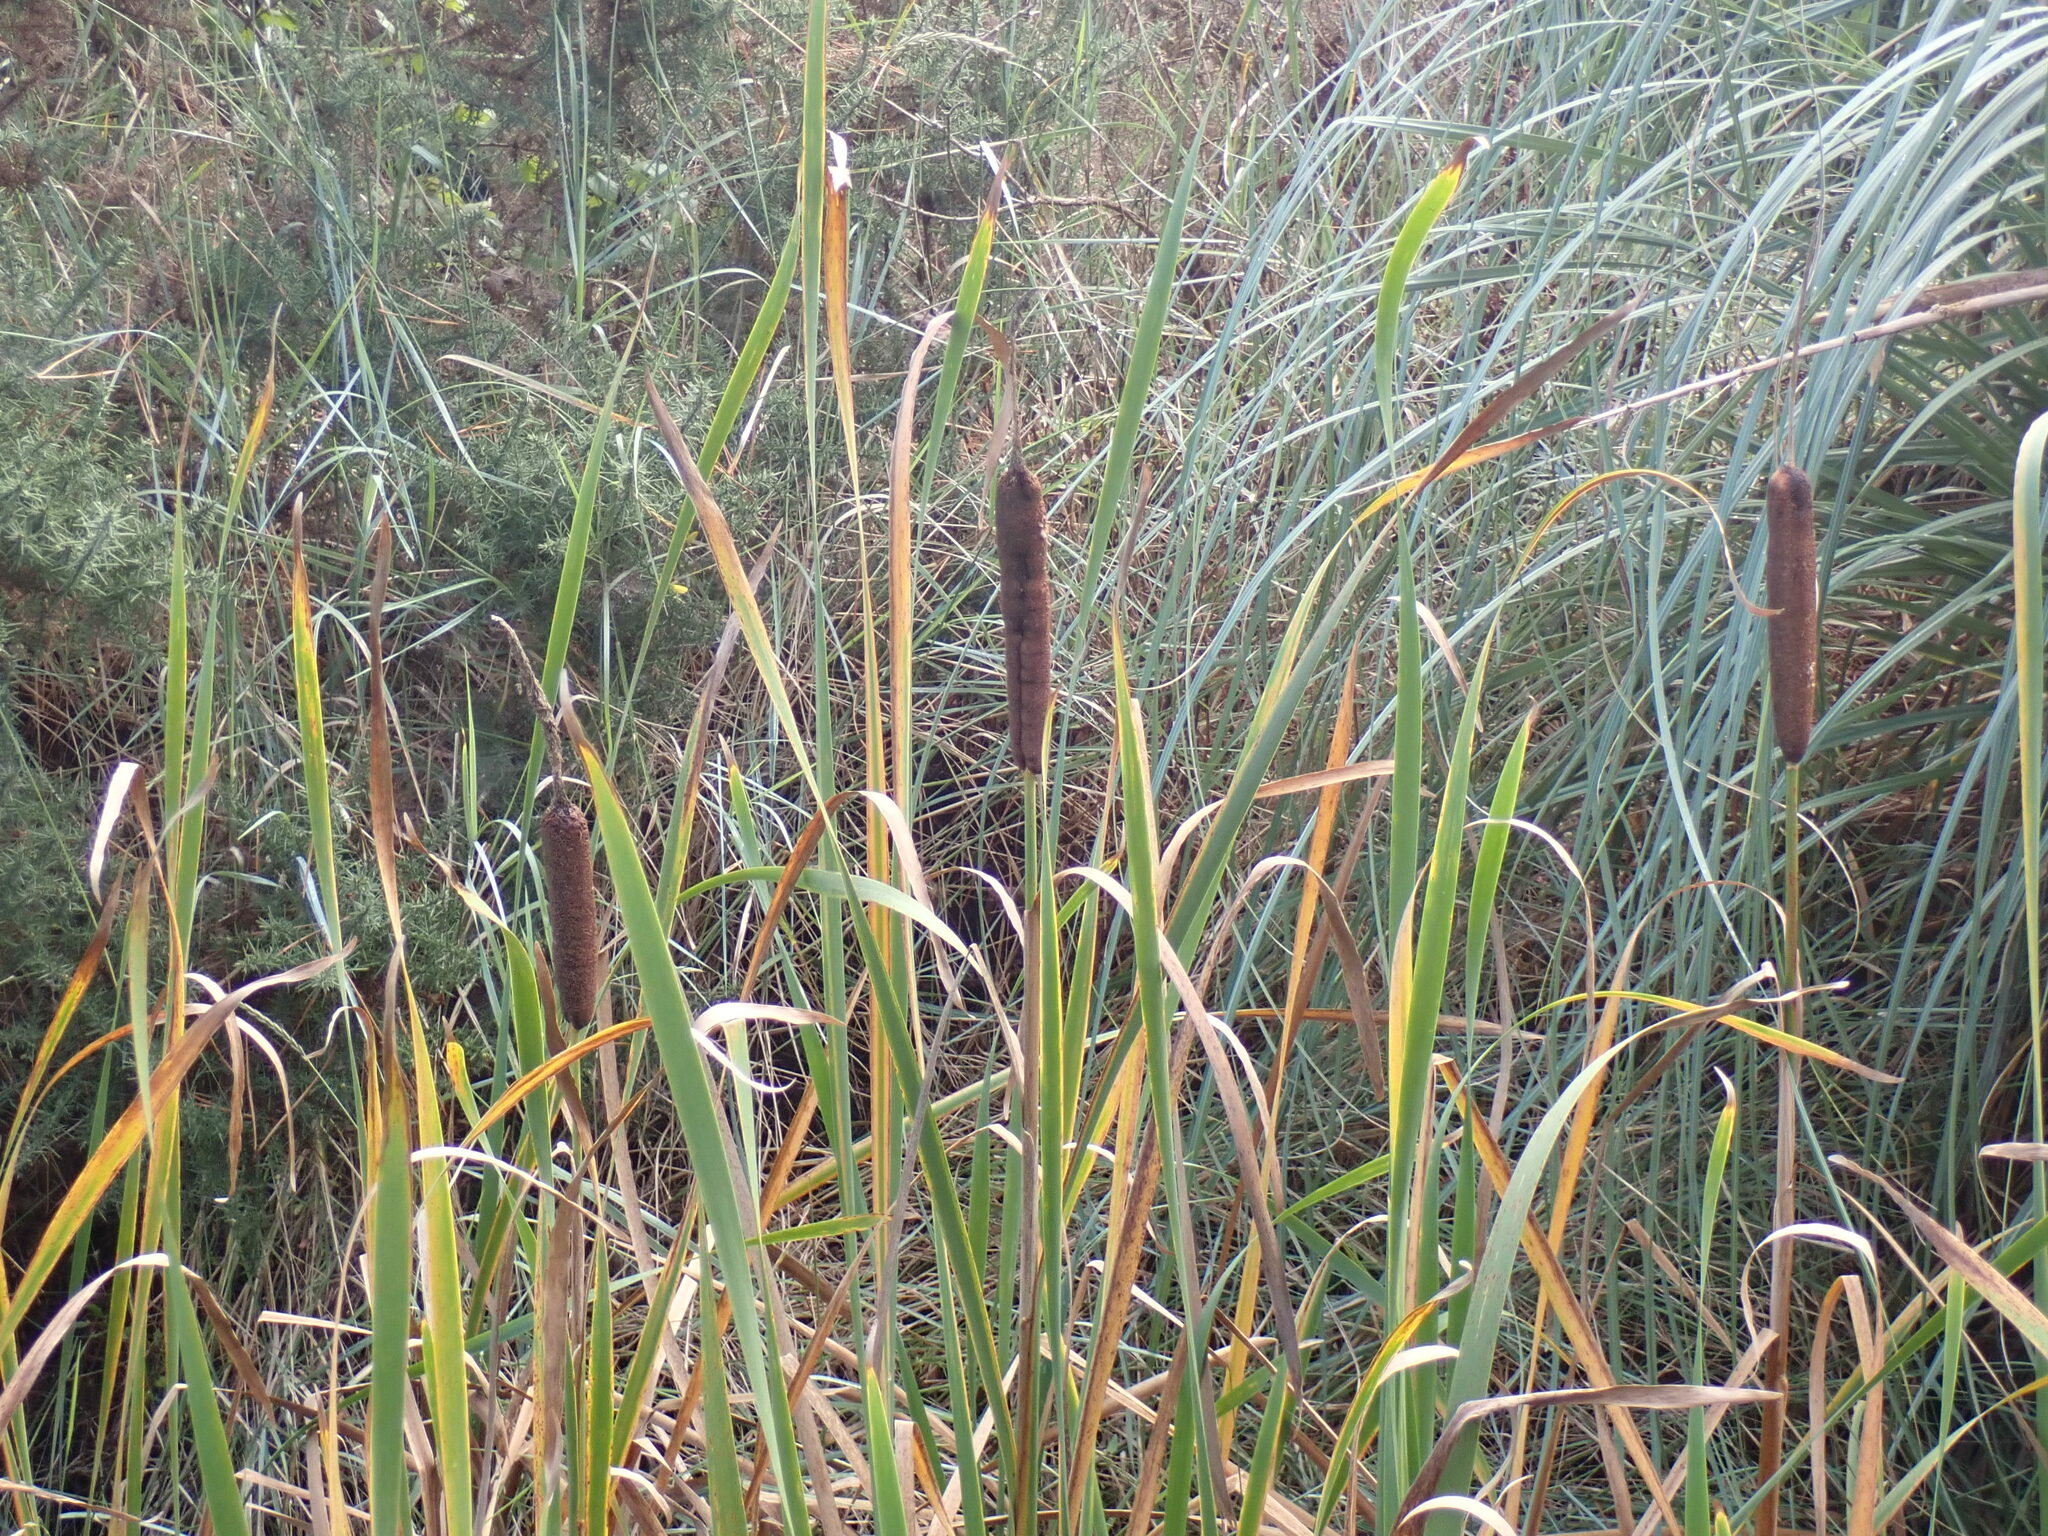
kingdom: Plantae
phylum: Tracheophyta
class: Liliopsida
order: Poales
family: Typhaceae
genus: Typha
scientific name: Typha latifolia
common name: Broadleaf cattail
